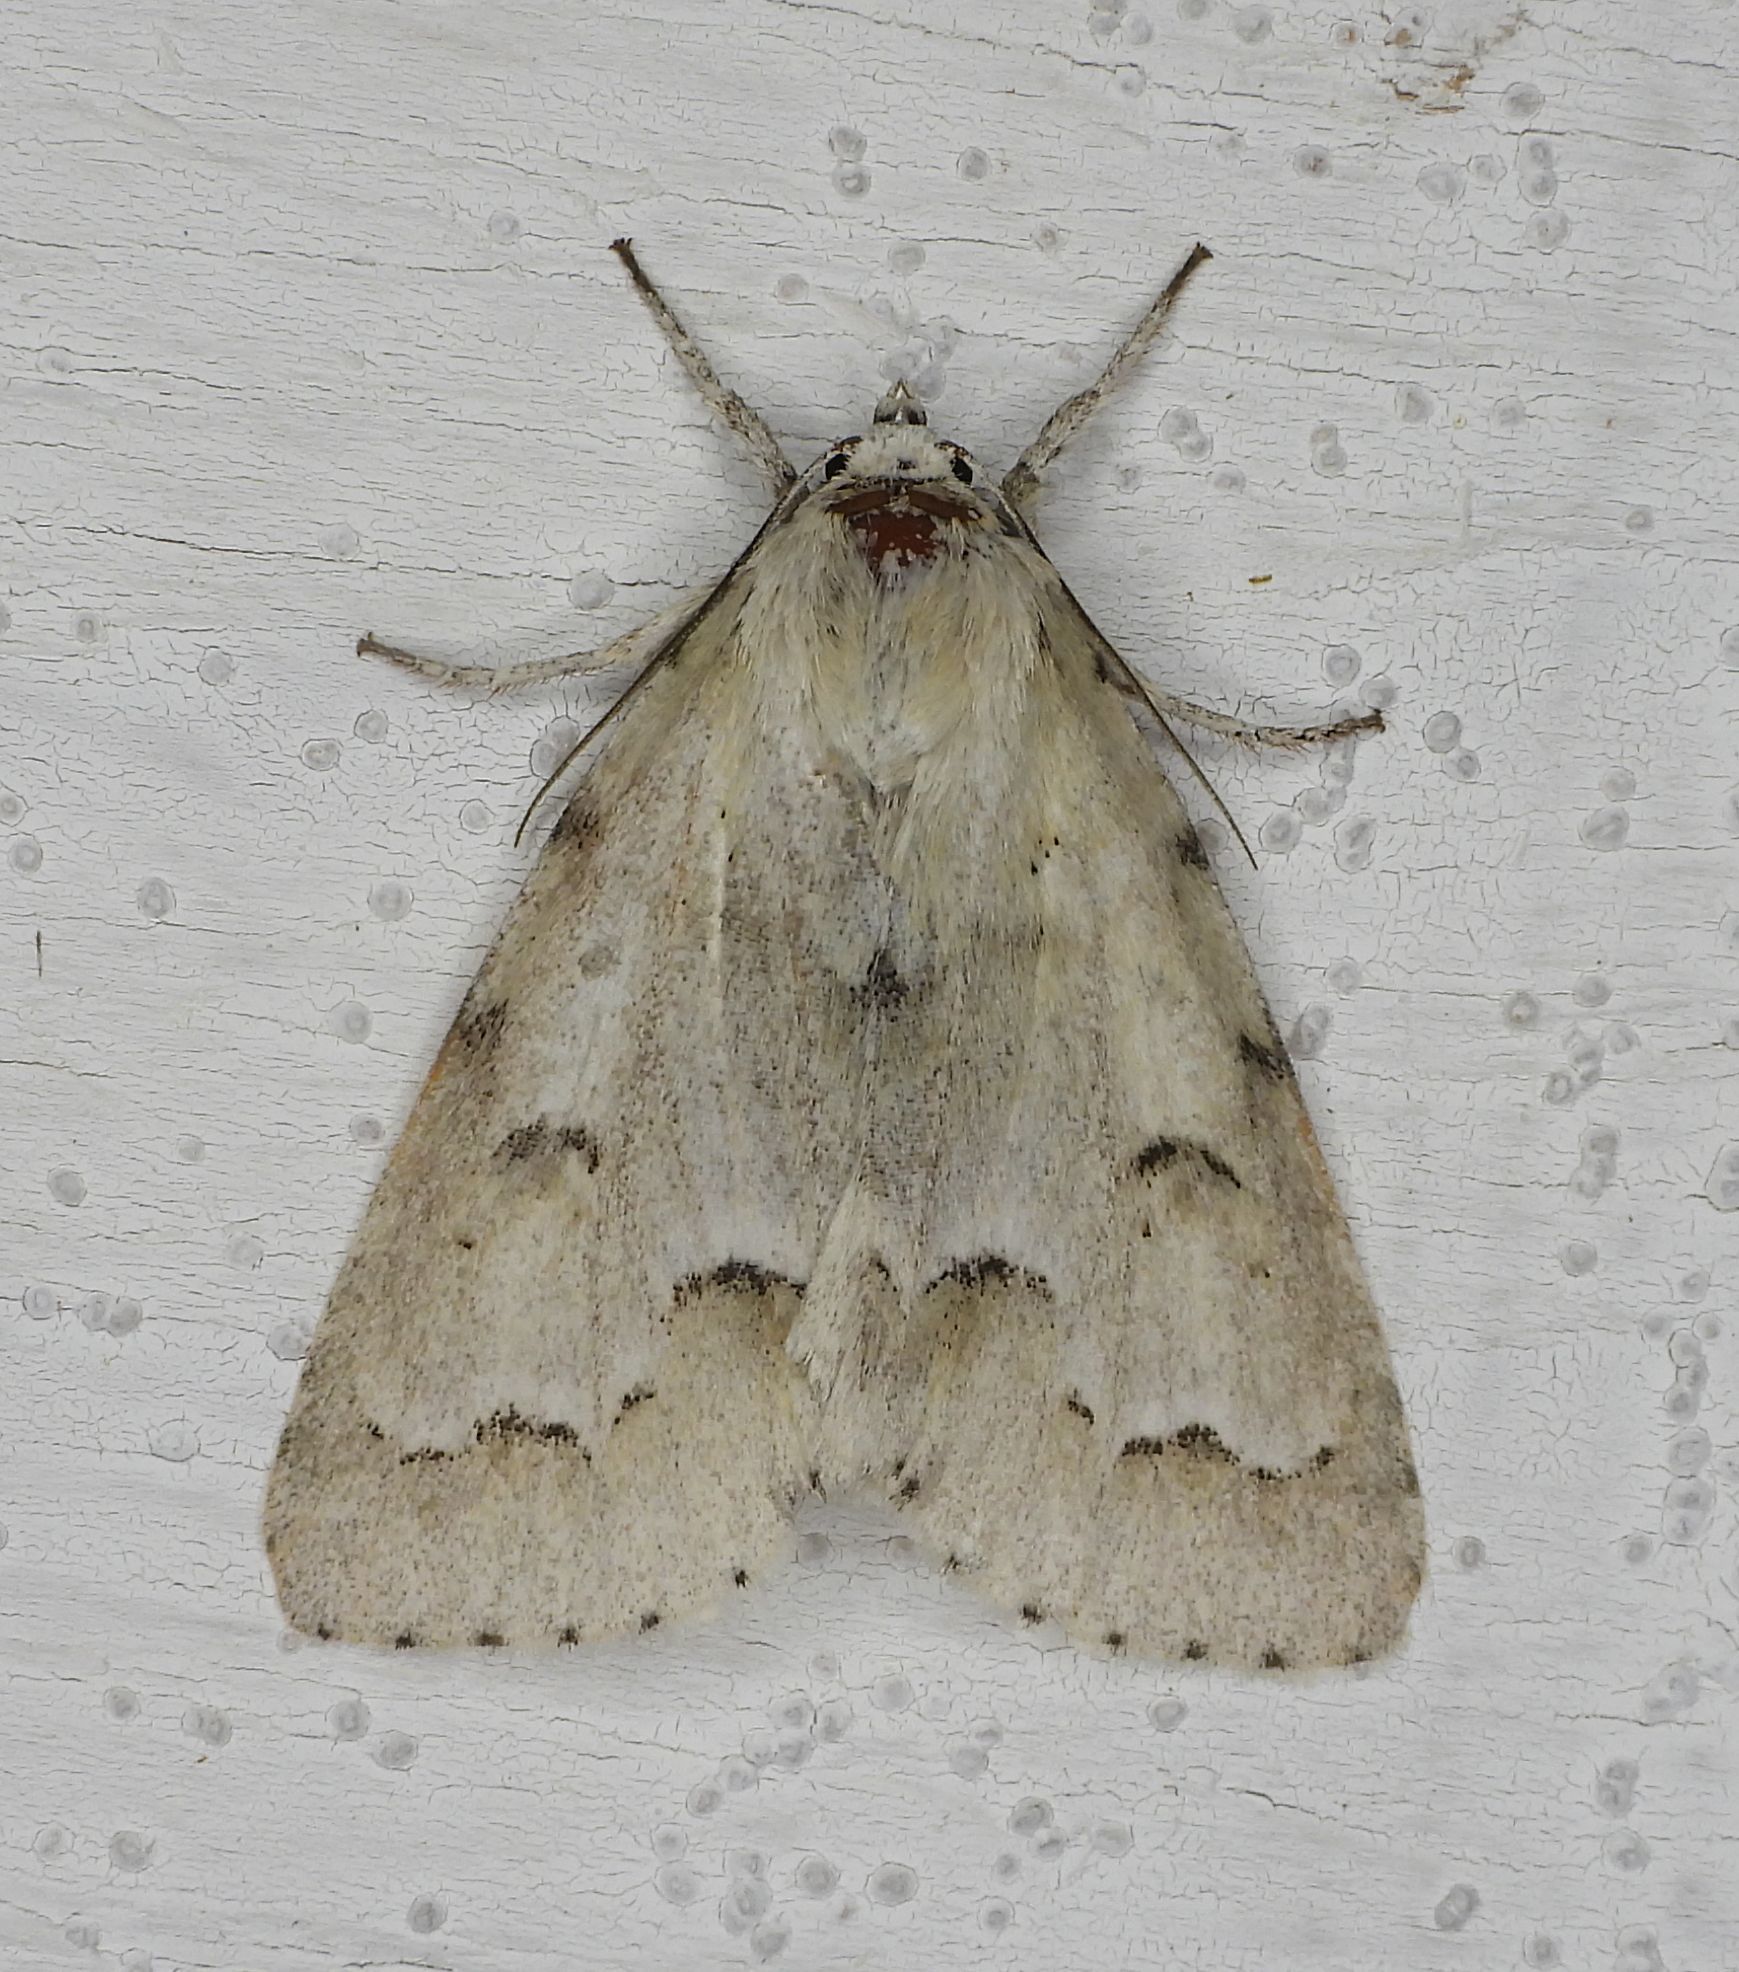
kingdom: Animalia
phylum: Arthropoda
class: Insecta
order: Lepidoptera
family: Noctuidae
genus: Acronicta
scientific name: Acronicta innotata
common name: Unmarked dagger
